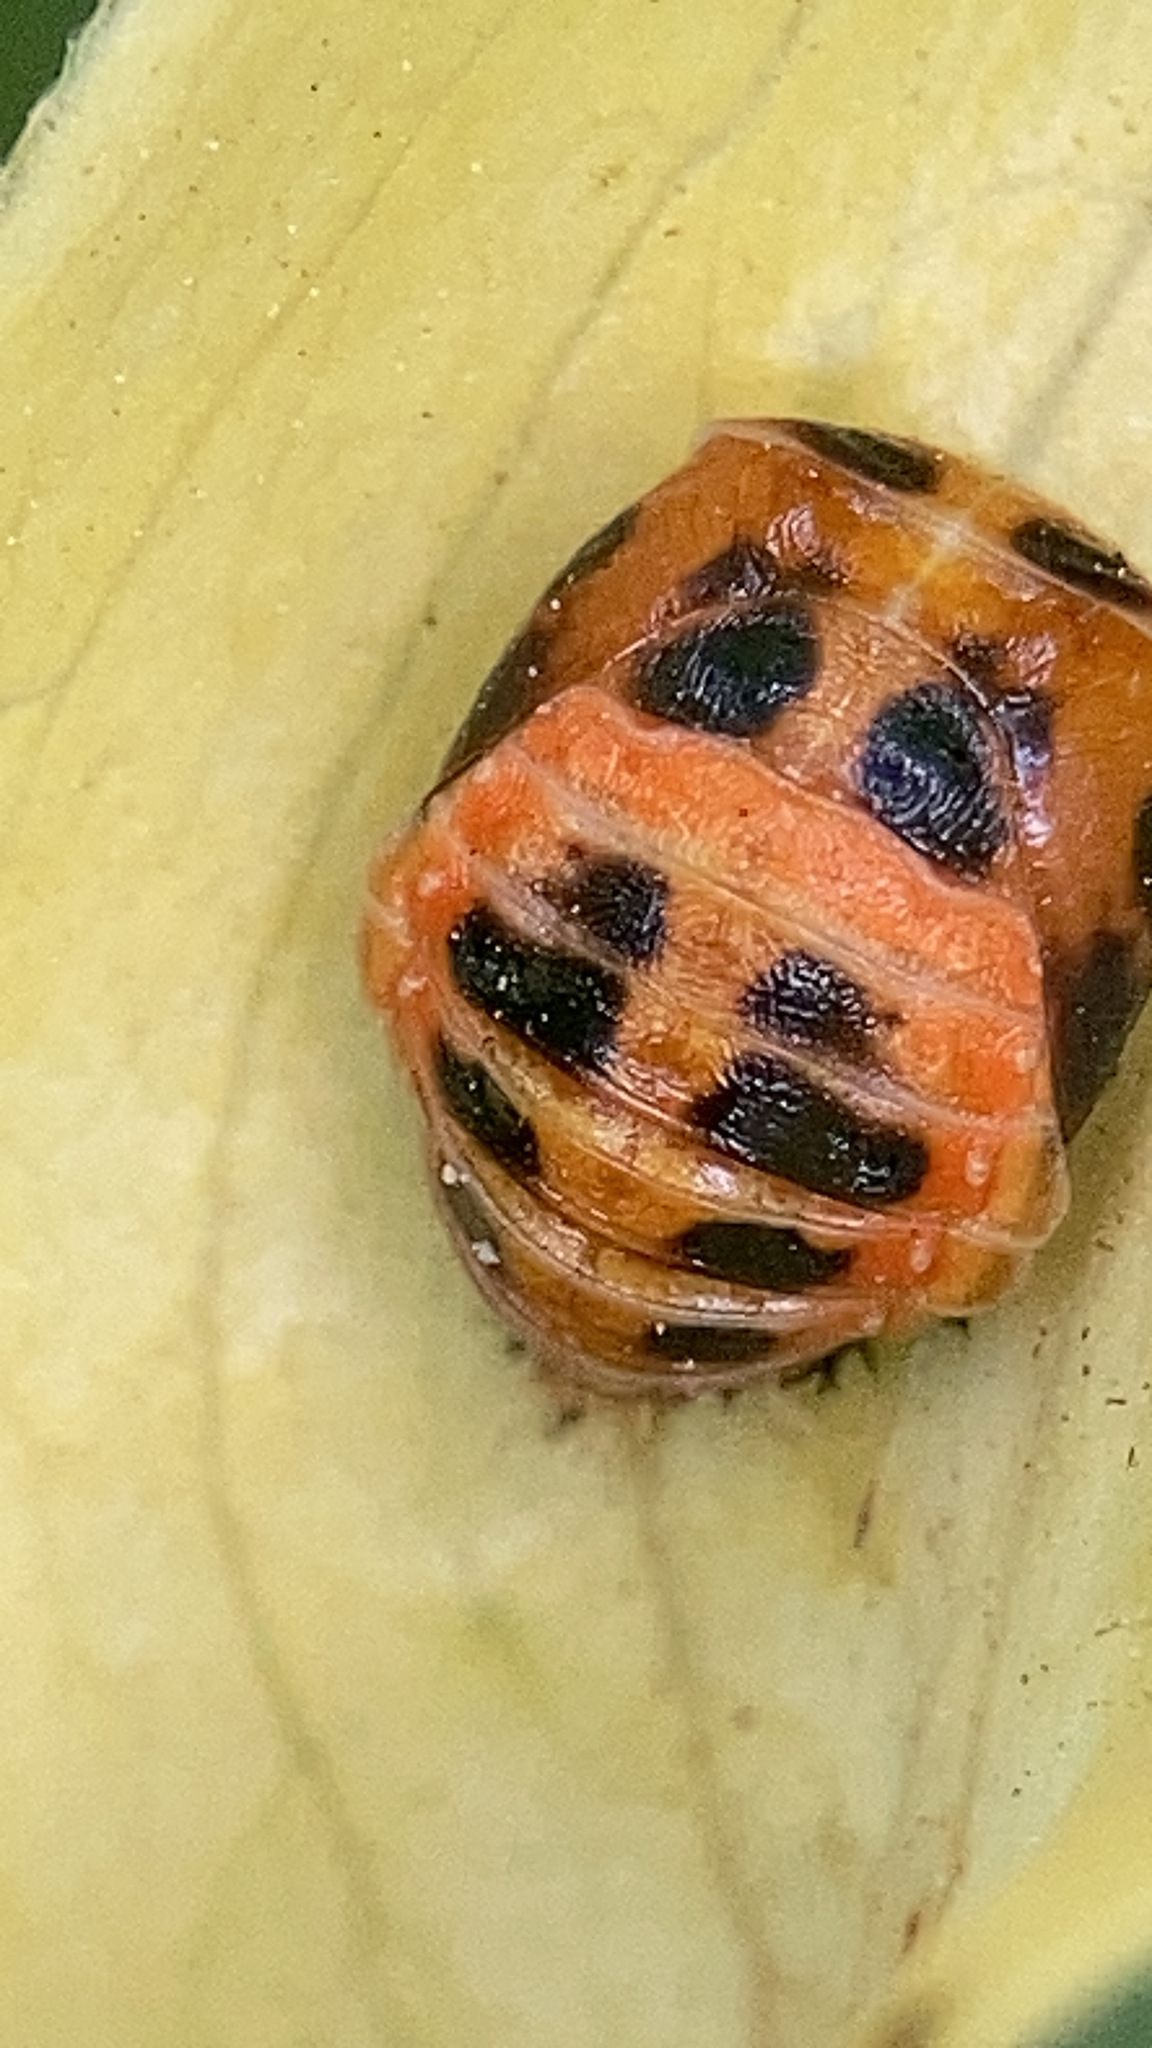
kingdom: Animalia
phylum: Arthropoda
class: Insecta
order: Coleoptera
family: Coccinellidae
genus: Harmonia
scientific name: Harmonia axyridis
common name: Harlequin ladybird
